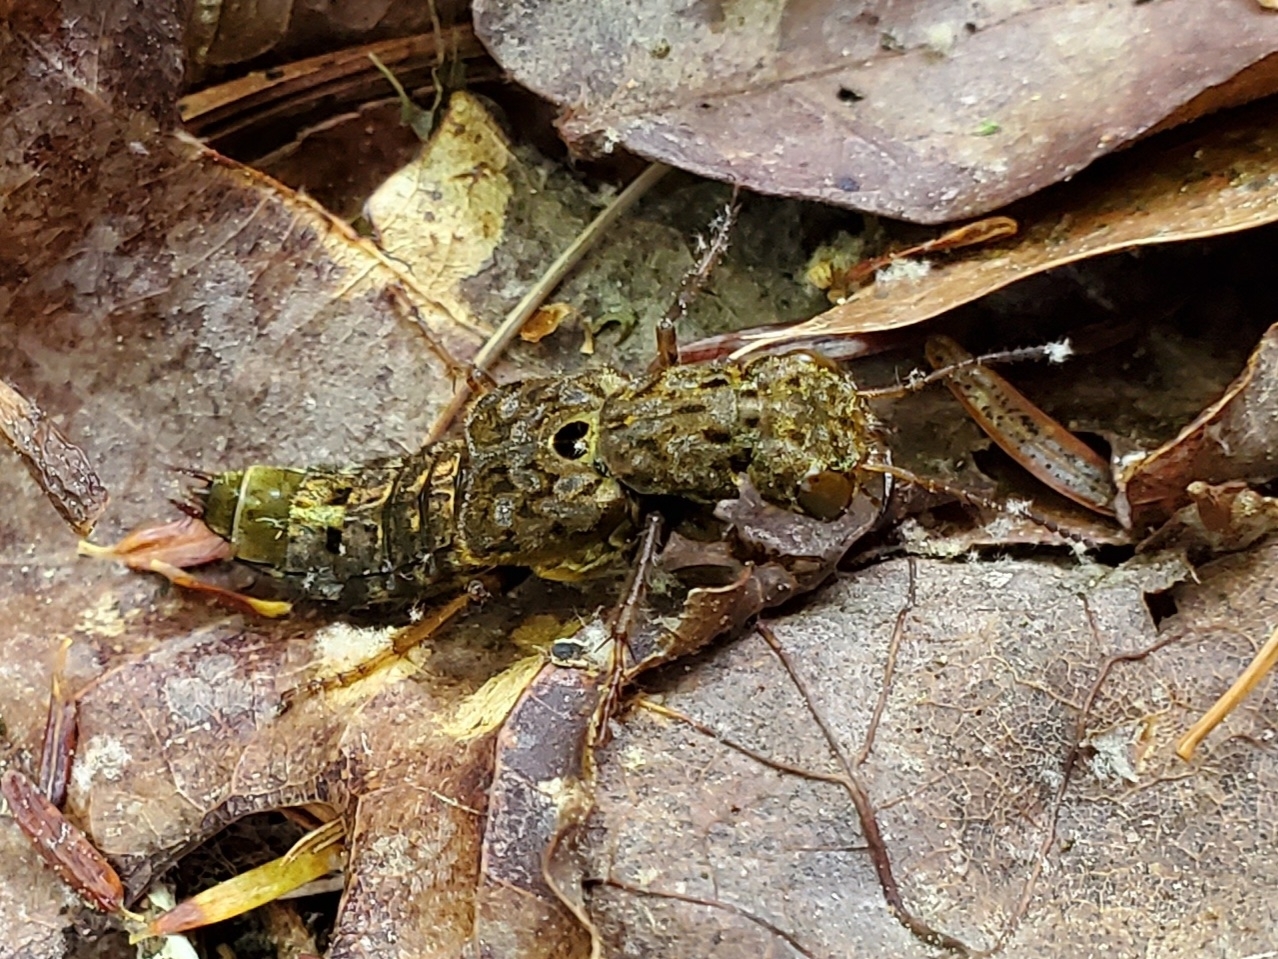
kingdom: Animalia
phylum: Arthropoda
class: Insecta
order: Coleoptera
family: Staphylinidae
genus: Ontholestes
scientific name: Ontholestes cingulatus
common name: Gold-and-brown rove beetle
